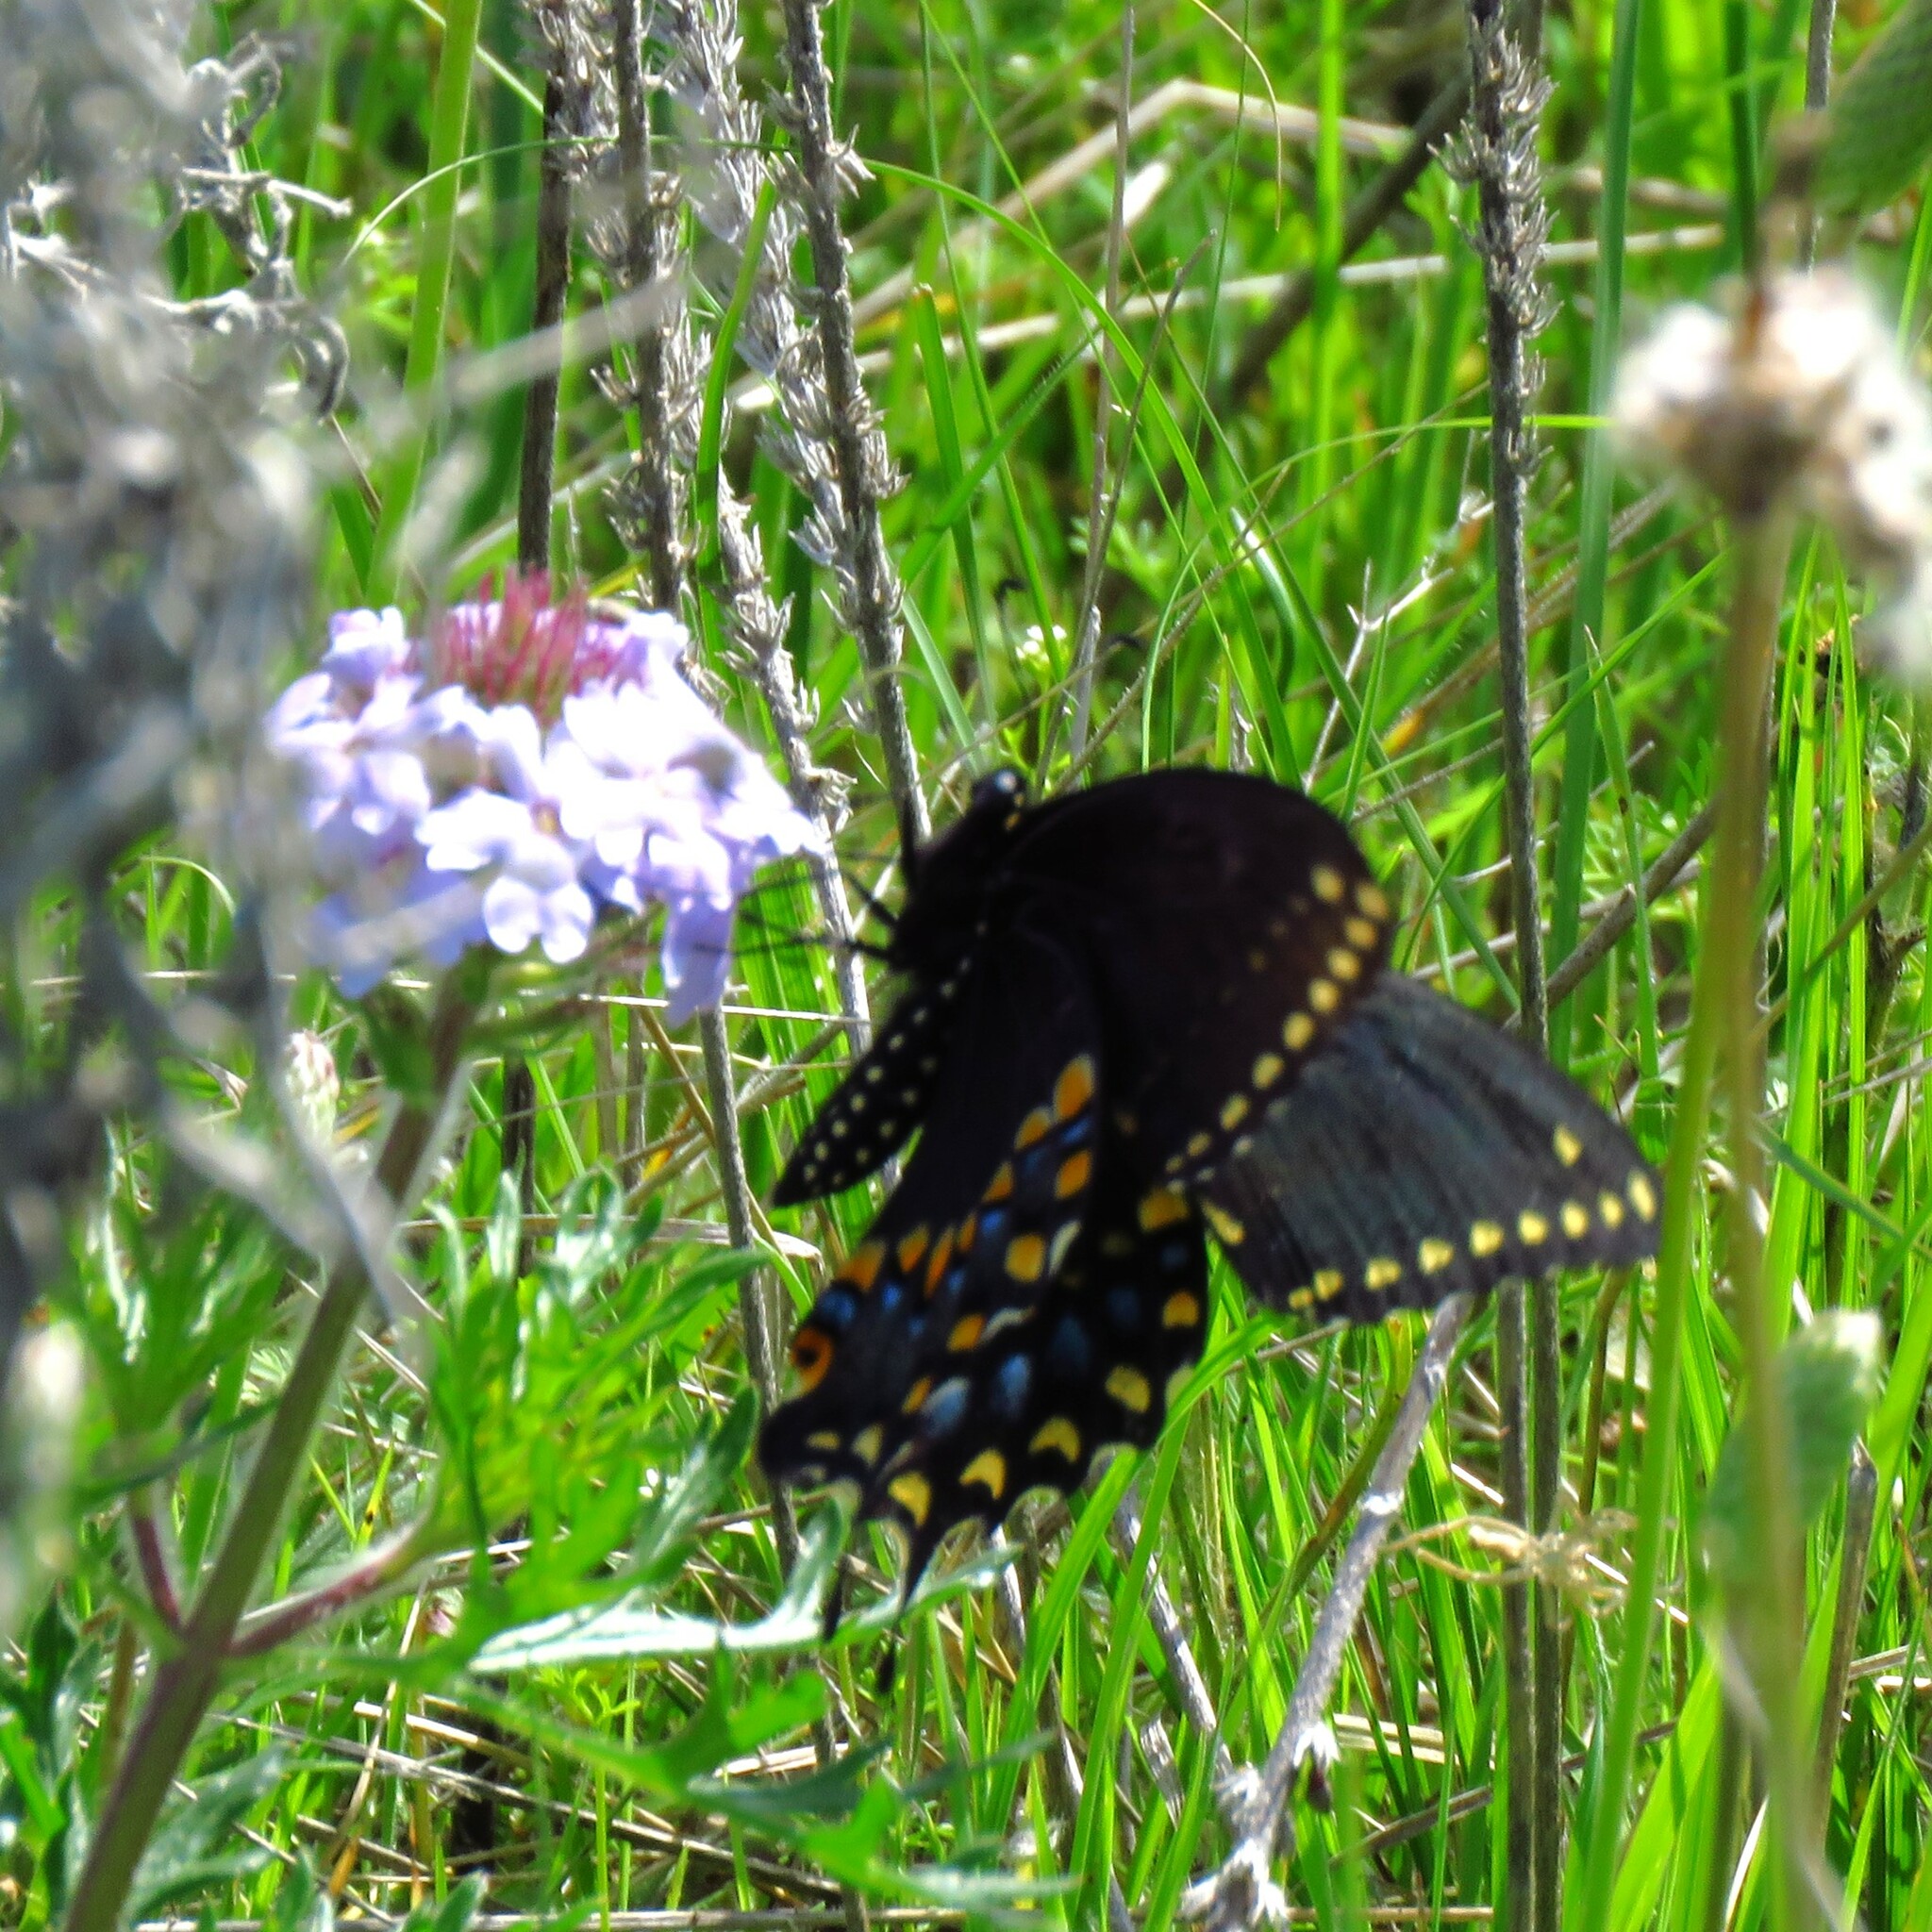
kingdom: Animalia
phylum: Arthropoda
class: Insecta
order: Lepidoptera
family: Papilionidae
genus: Papilio
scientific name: Papilio polyxenes
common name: Black swallowtail
